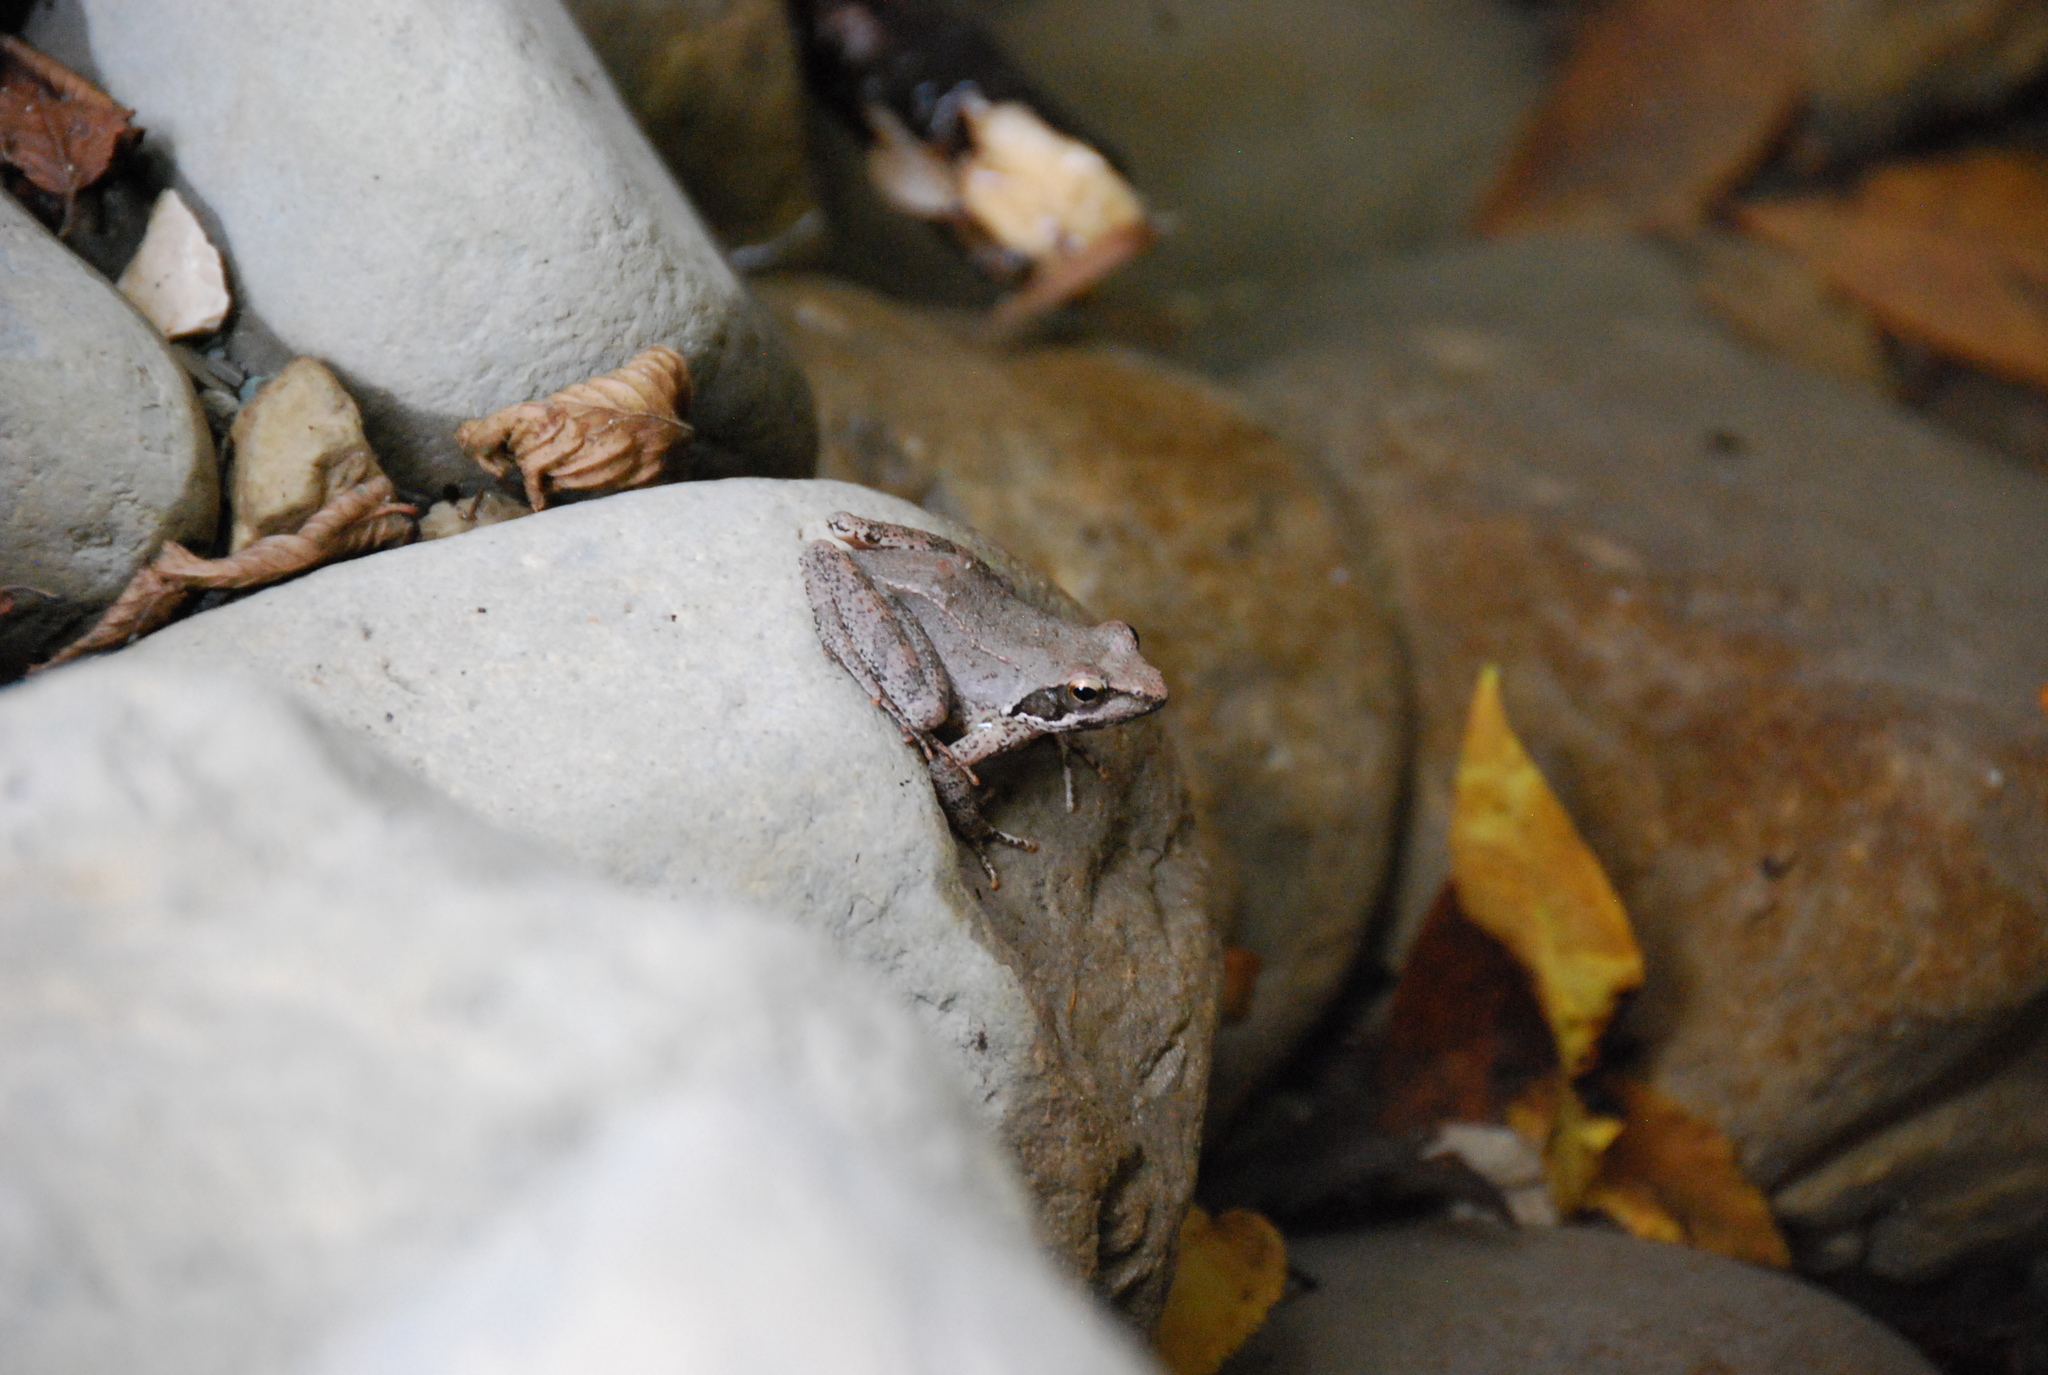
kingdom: Animalia
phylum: Chordata
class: Amphibia
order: Anura
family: Ranidae
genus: Rana
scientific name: Rana italica
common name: Italian stream frog
